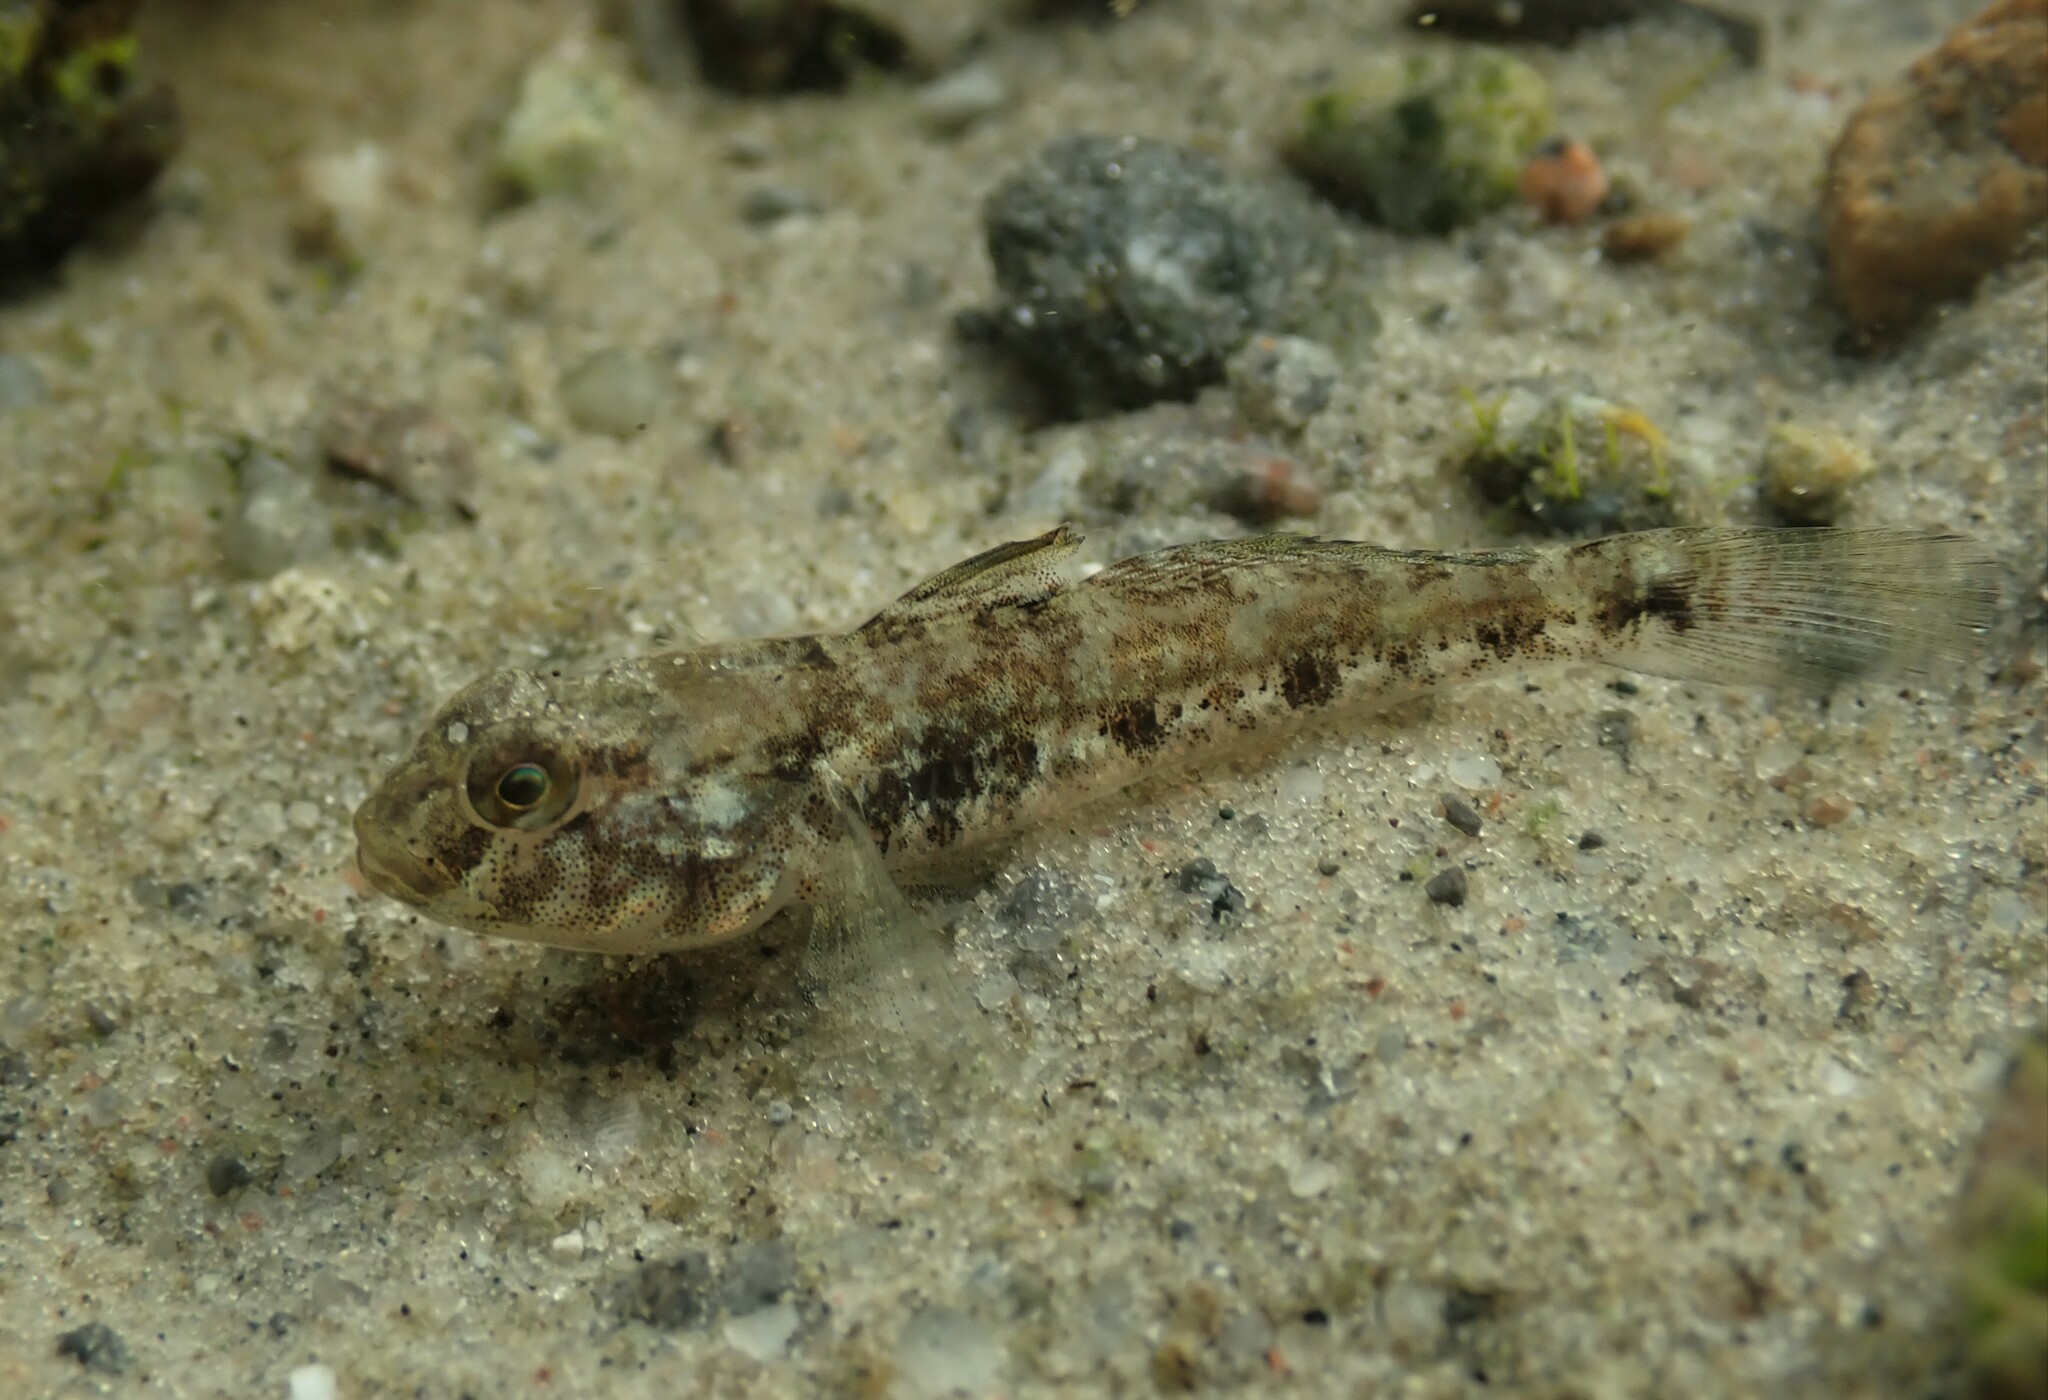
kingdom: Animalia
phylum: Chordata
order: Perciformes
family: Gobiidae
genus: Gobius
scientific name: Gobius niger
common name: Black goby
